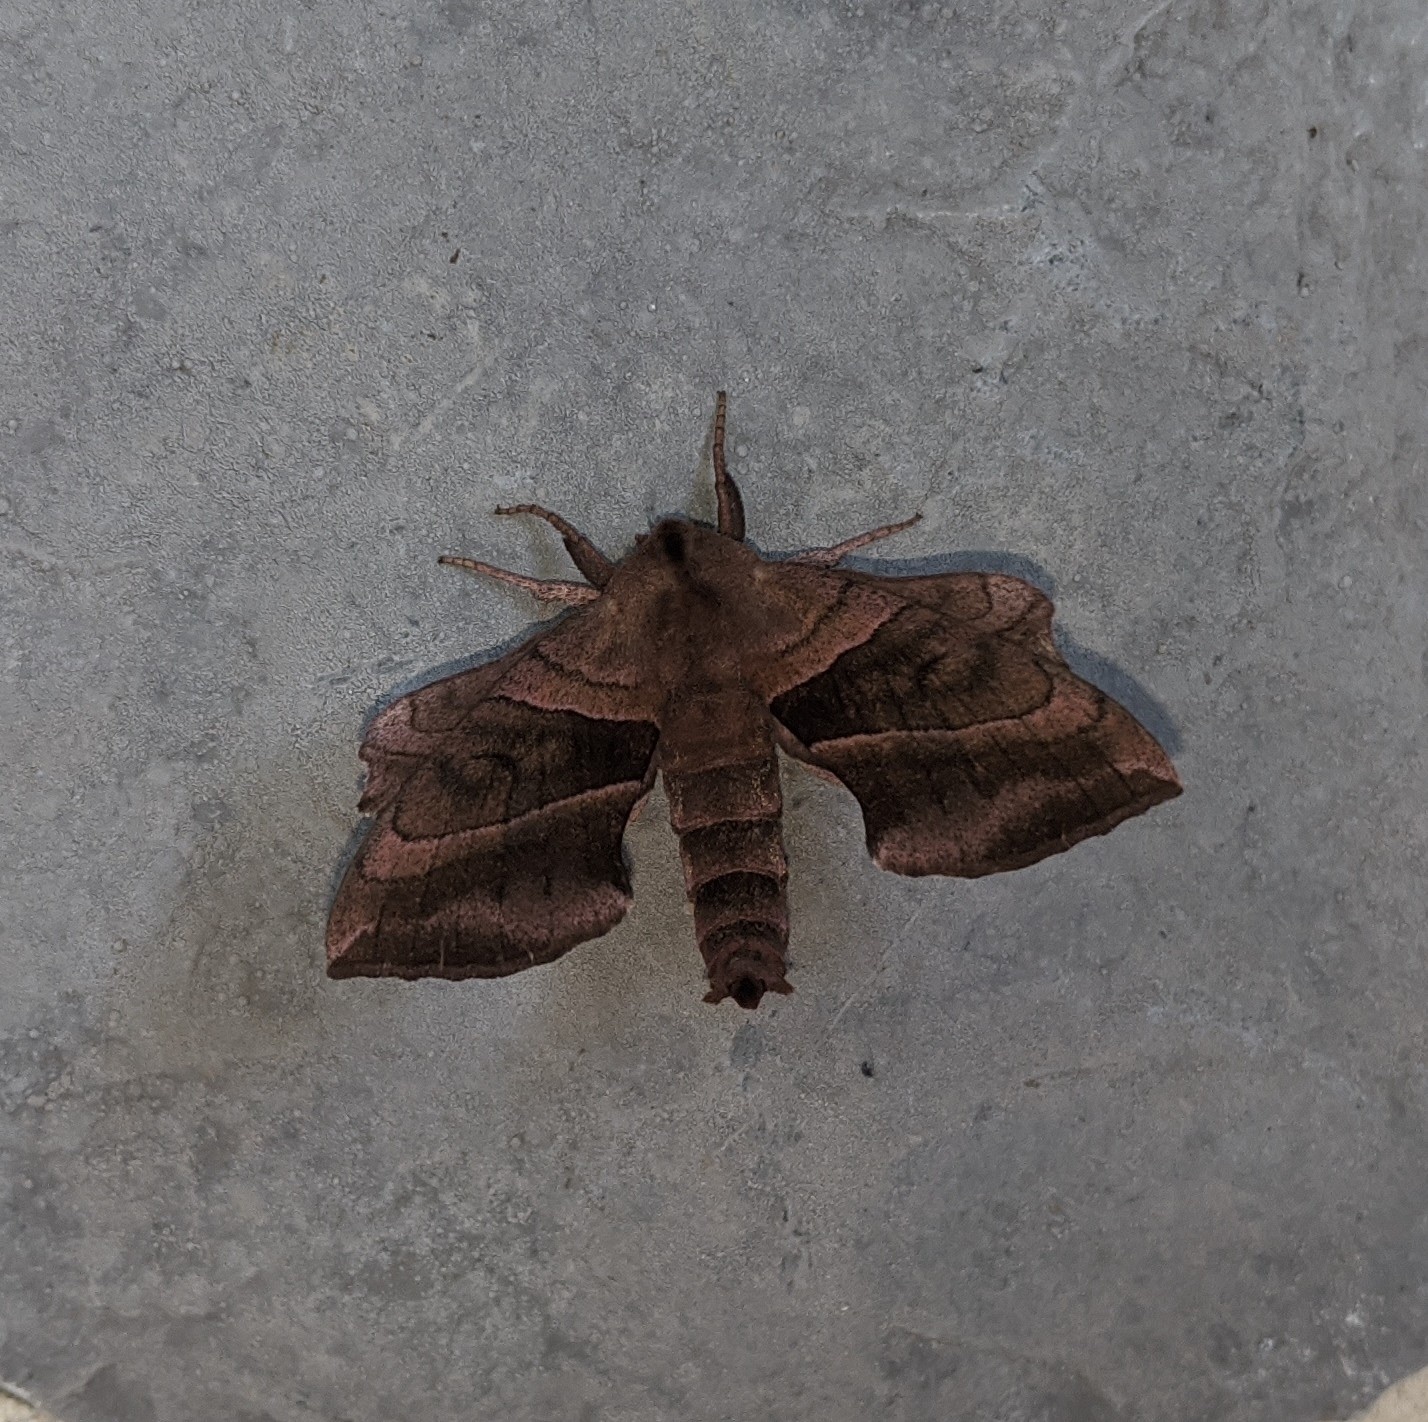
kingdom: Animalia
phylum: Arthropoda
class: Insecta
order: Lepidoptera
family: Sphingidae
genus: Amorpha
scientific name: Amorpha juglandis
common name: Walnut sphinx
